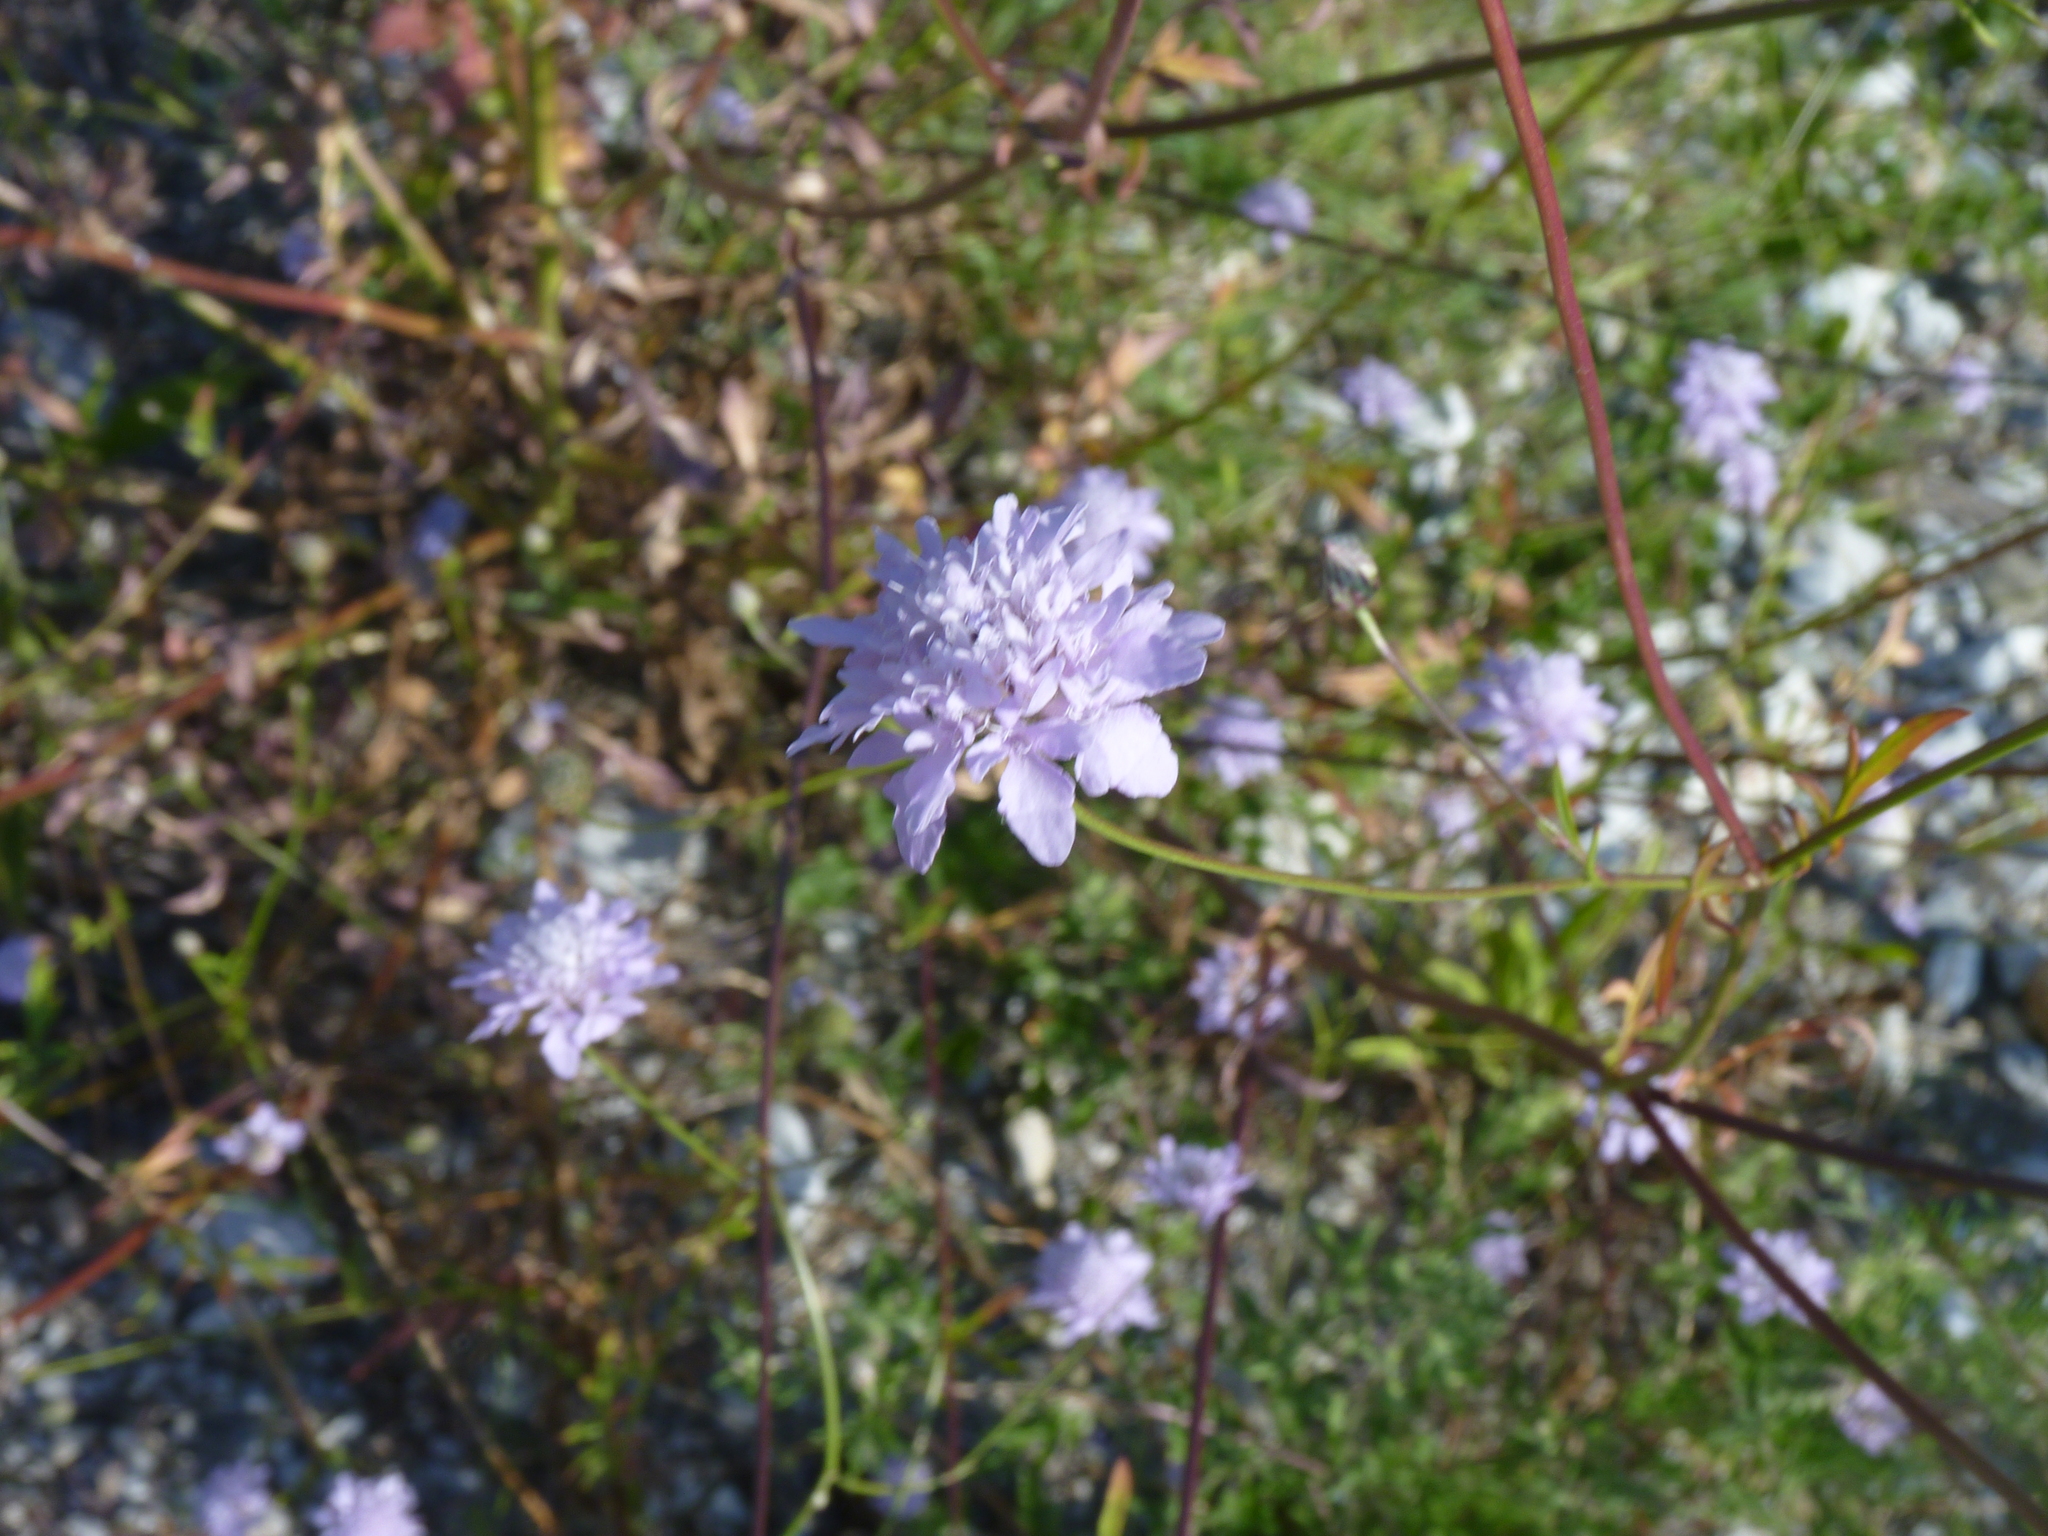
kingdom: Plantae
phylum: Tracheophyta
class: Magnoliopsida
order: Dipsacales
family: Caprifoliaceae
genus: Cephalaria
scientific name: Cephalaria transsylvanica
